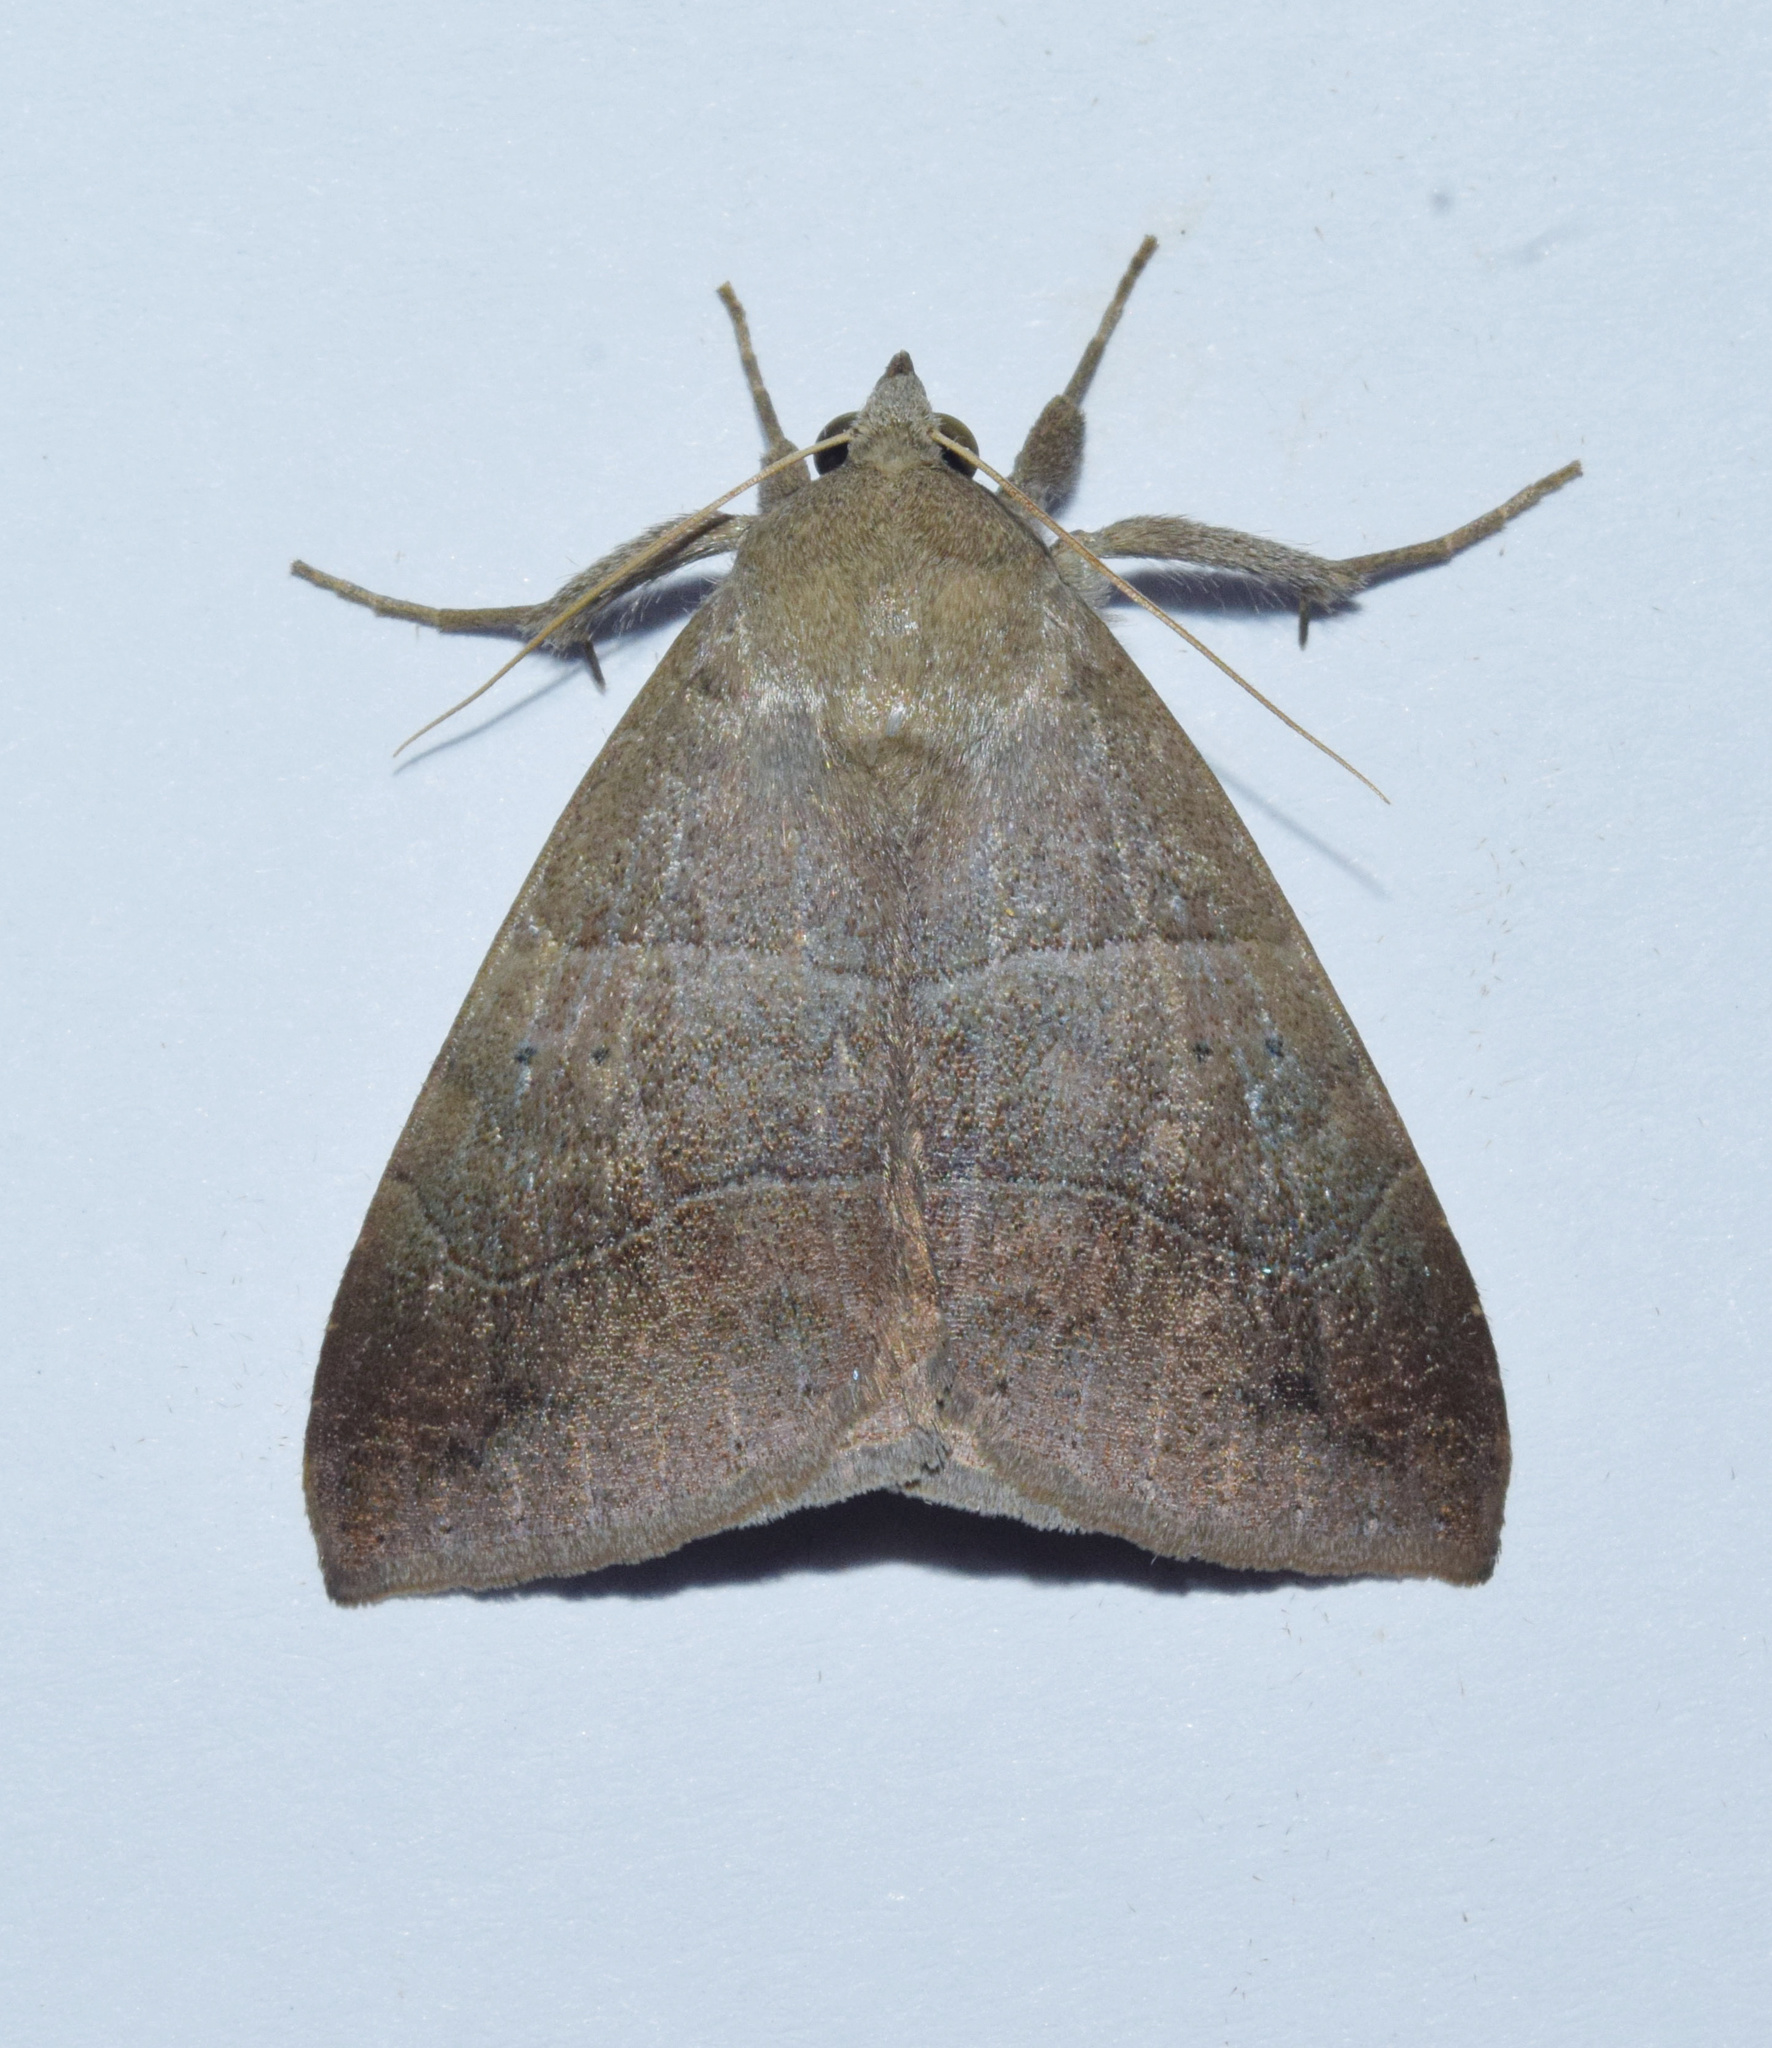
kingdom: Animalia
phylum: Arthropoda
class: Insecta
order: Lepidoptera
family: Erebidae
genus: Achaea
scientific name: Achaea indeterminata
